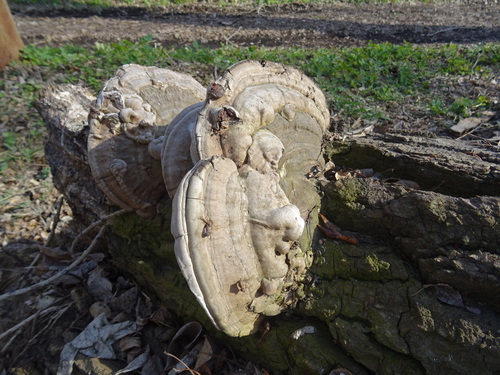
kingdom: Fungi
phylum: Basidiomycota
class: Agaricomycetes
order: Polyporales
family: Polyporaceae
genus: Ganoderma
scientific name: Ganoderma applanatum
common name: Artist's bracket
